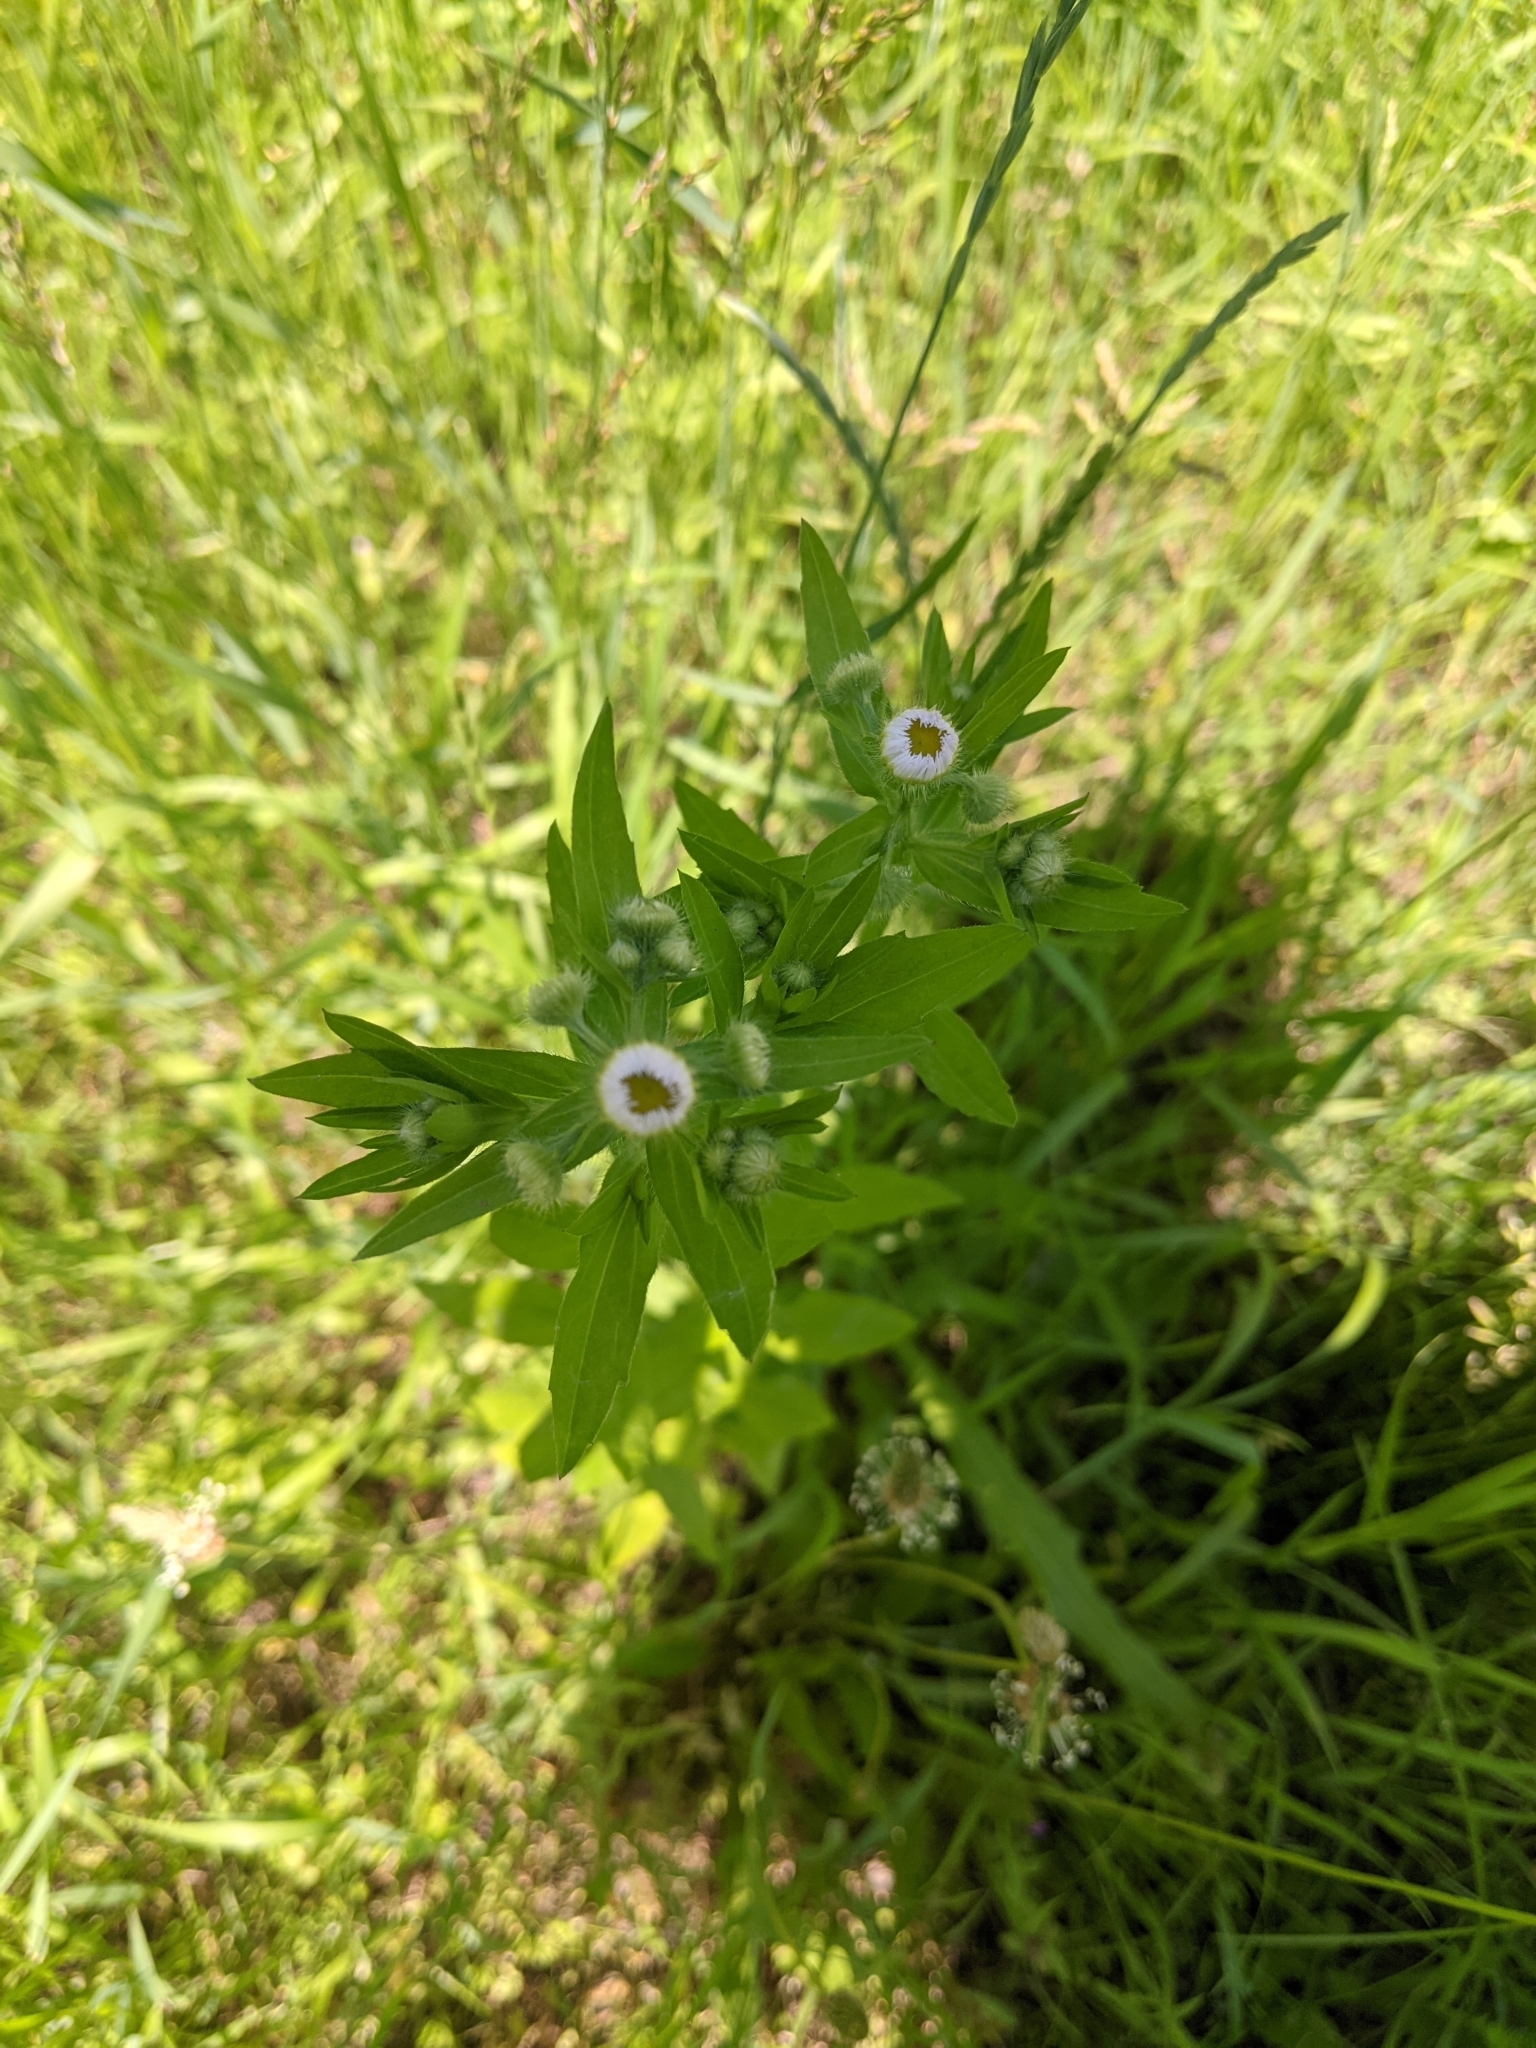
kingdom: Plantae
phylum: Tracheophyta
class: Magnoliopsida
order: Asterales
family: Asteraceae
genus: Erigeron
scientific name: Erigeron annuus
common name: Tall fleabane
